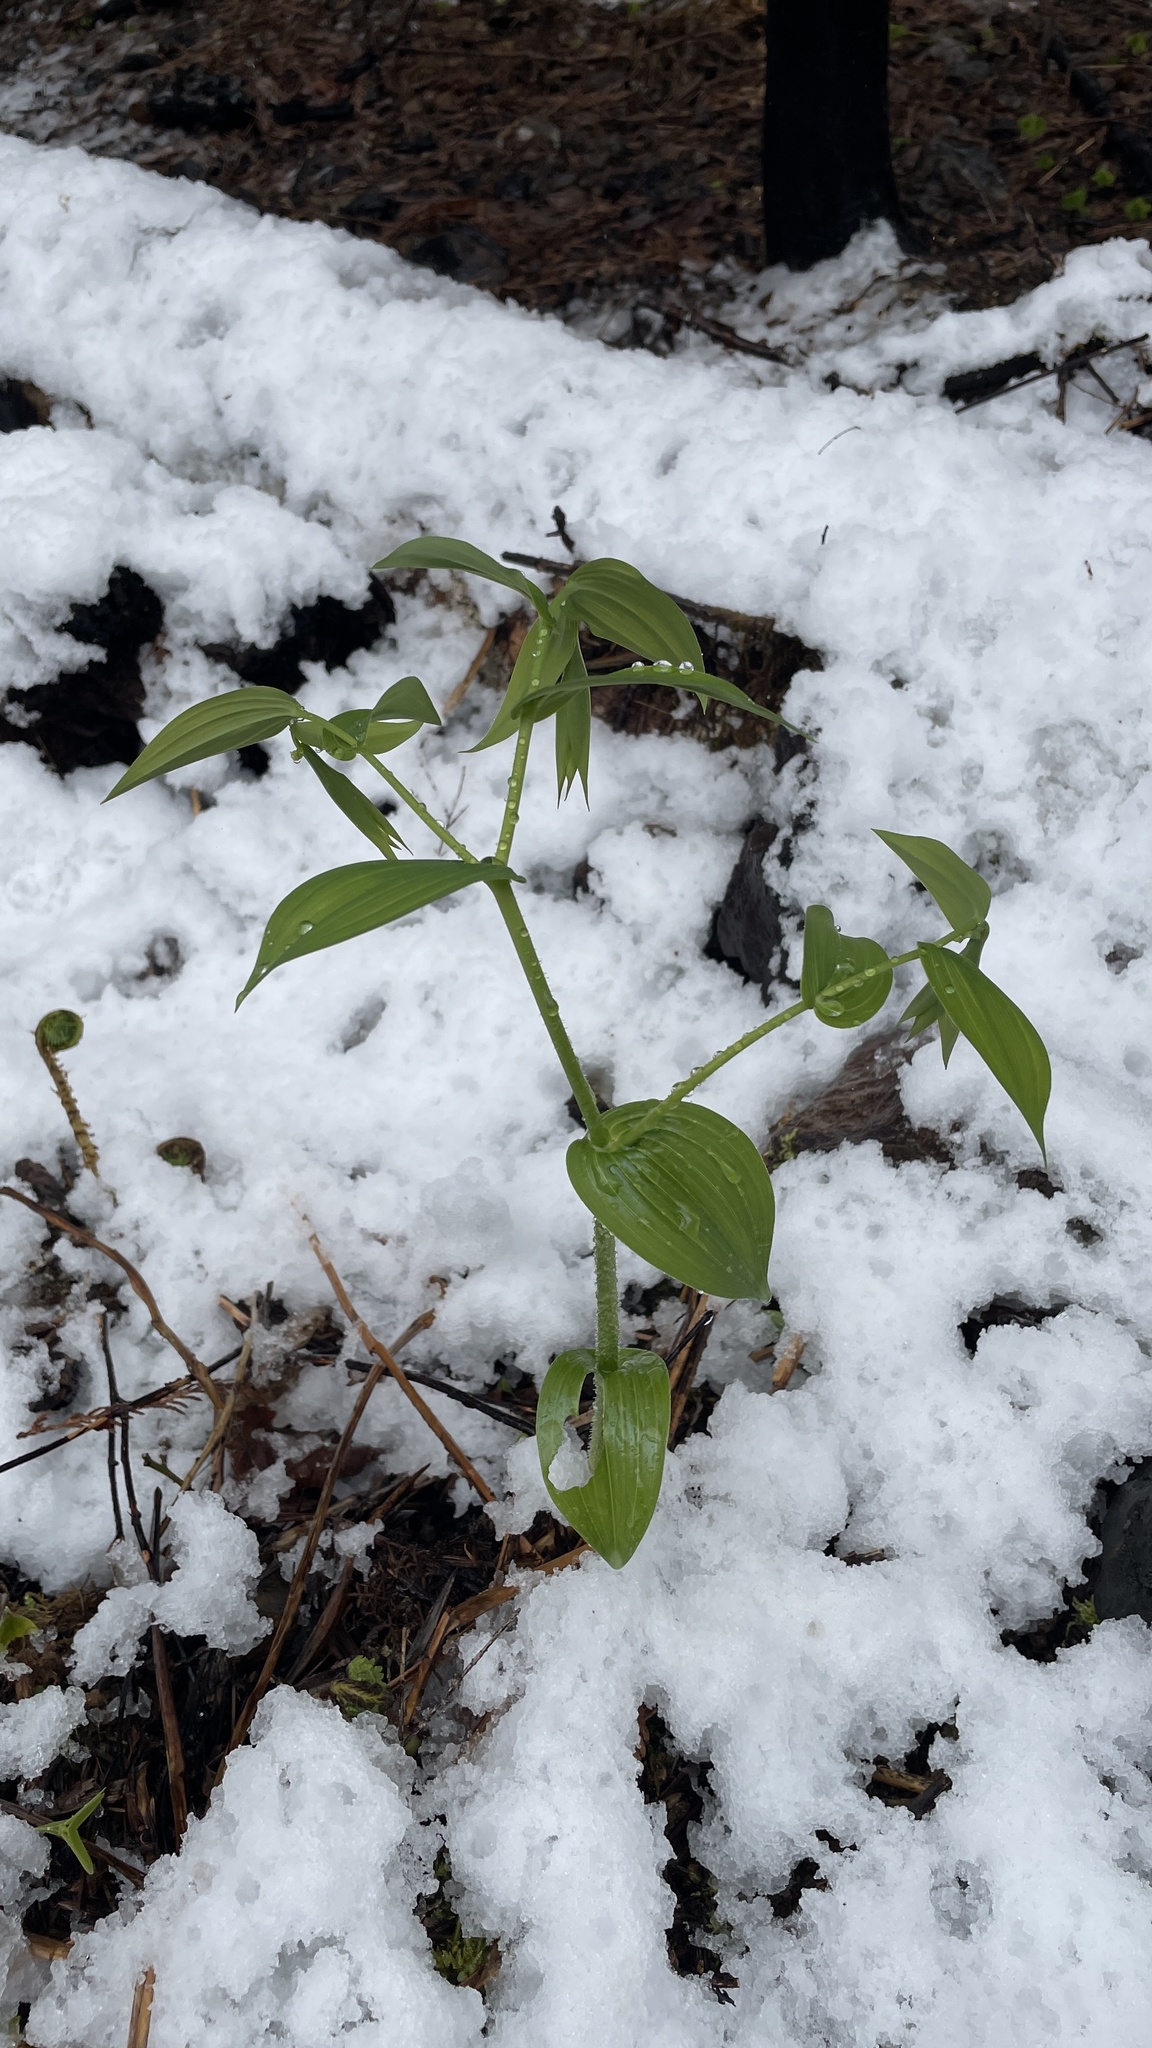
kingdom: Plantae
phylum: Tracheophyta
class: Liliopsida
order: Liliales
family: Liliaceae
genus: Streptopus
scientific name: Streptopus amplexifolius
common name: Clasp twisted stalk
